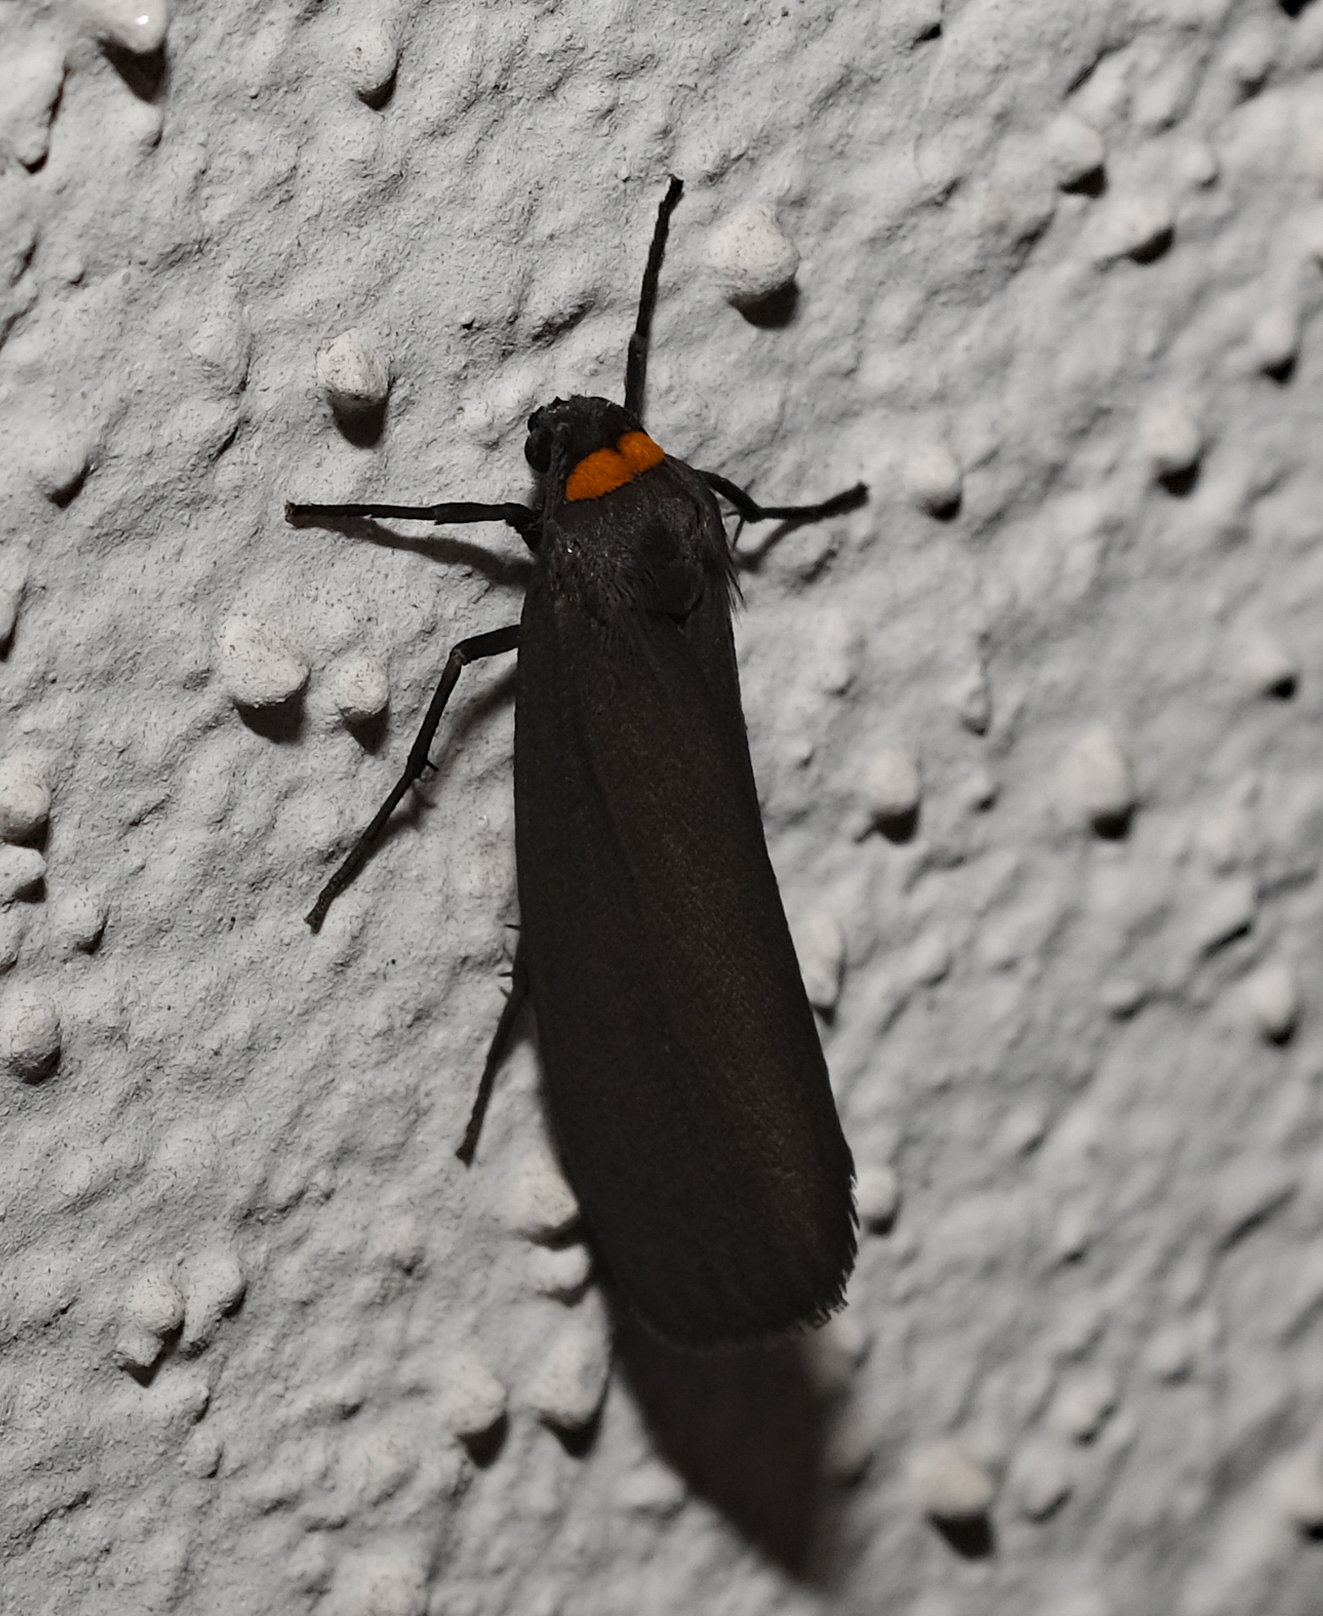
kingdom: Animalia
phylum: Arthropoda
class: Insecta
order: Lepidoptera
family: Erebidae
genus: Atolmis
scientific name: Atolmis rubricollis
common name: Red-necked footman
